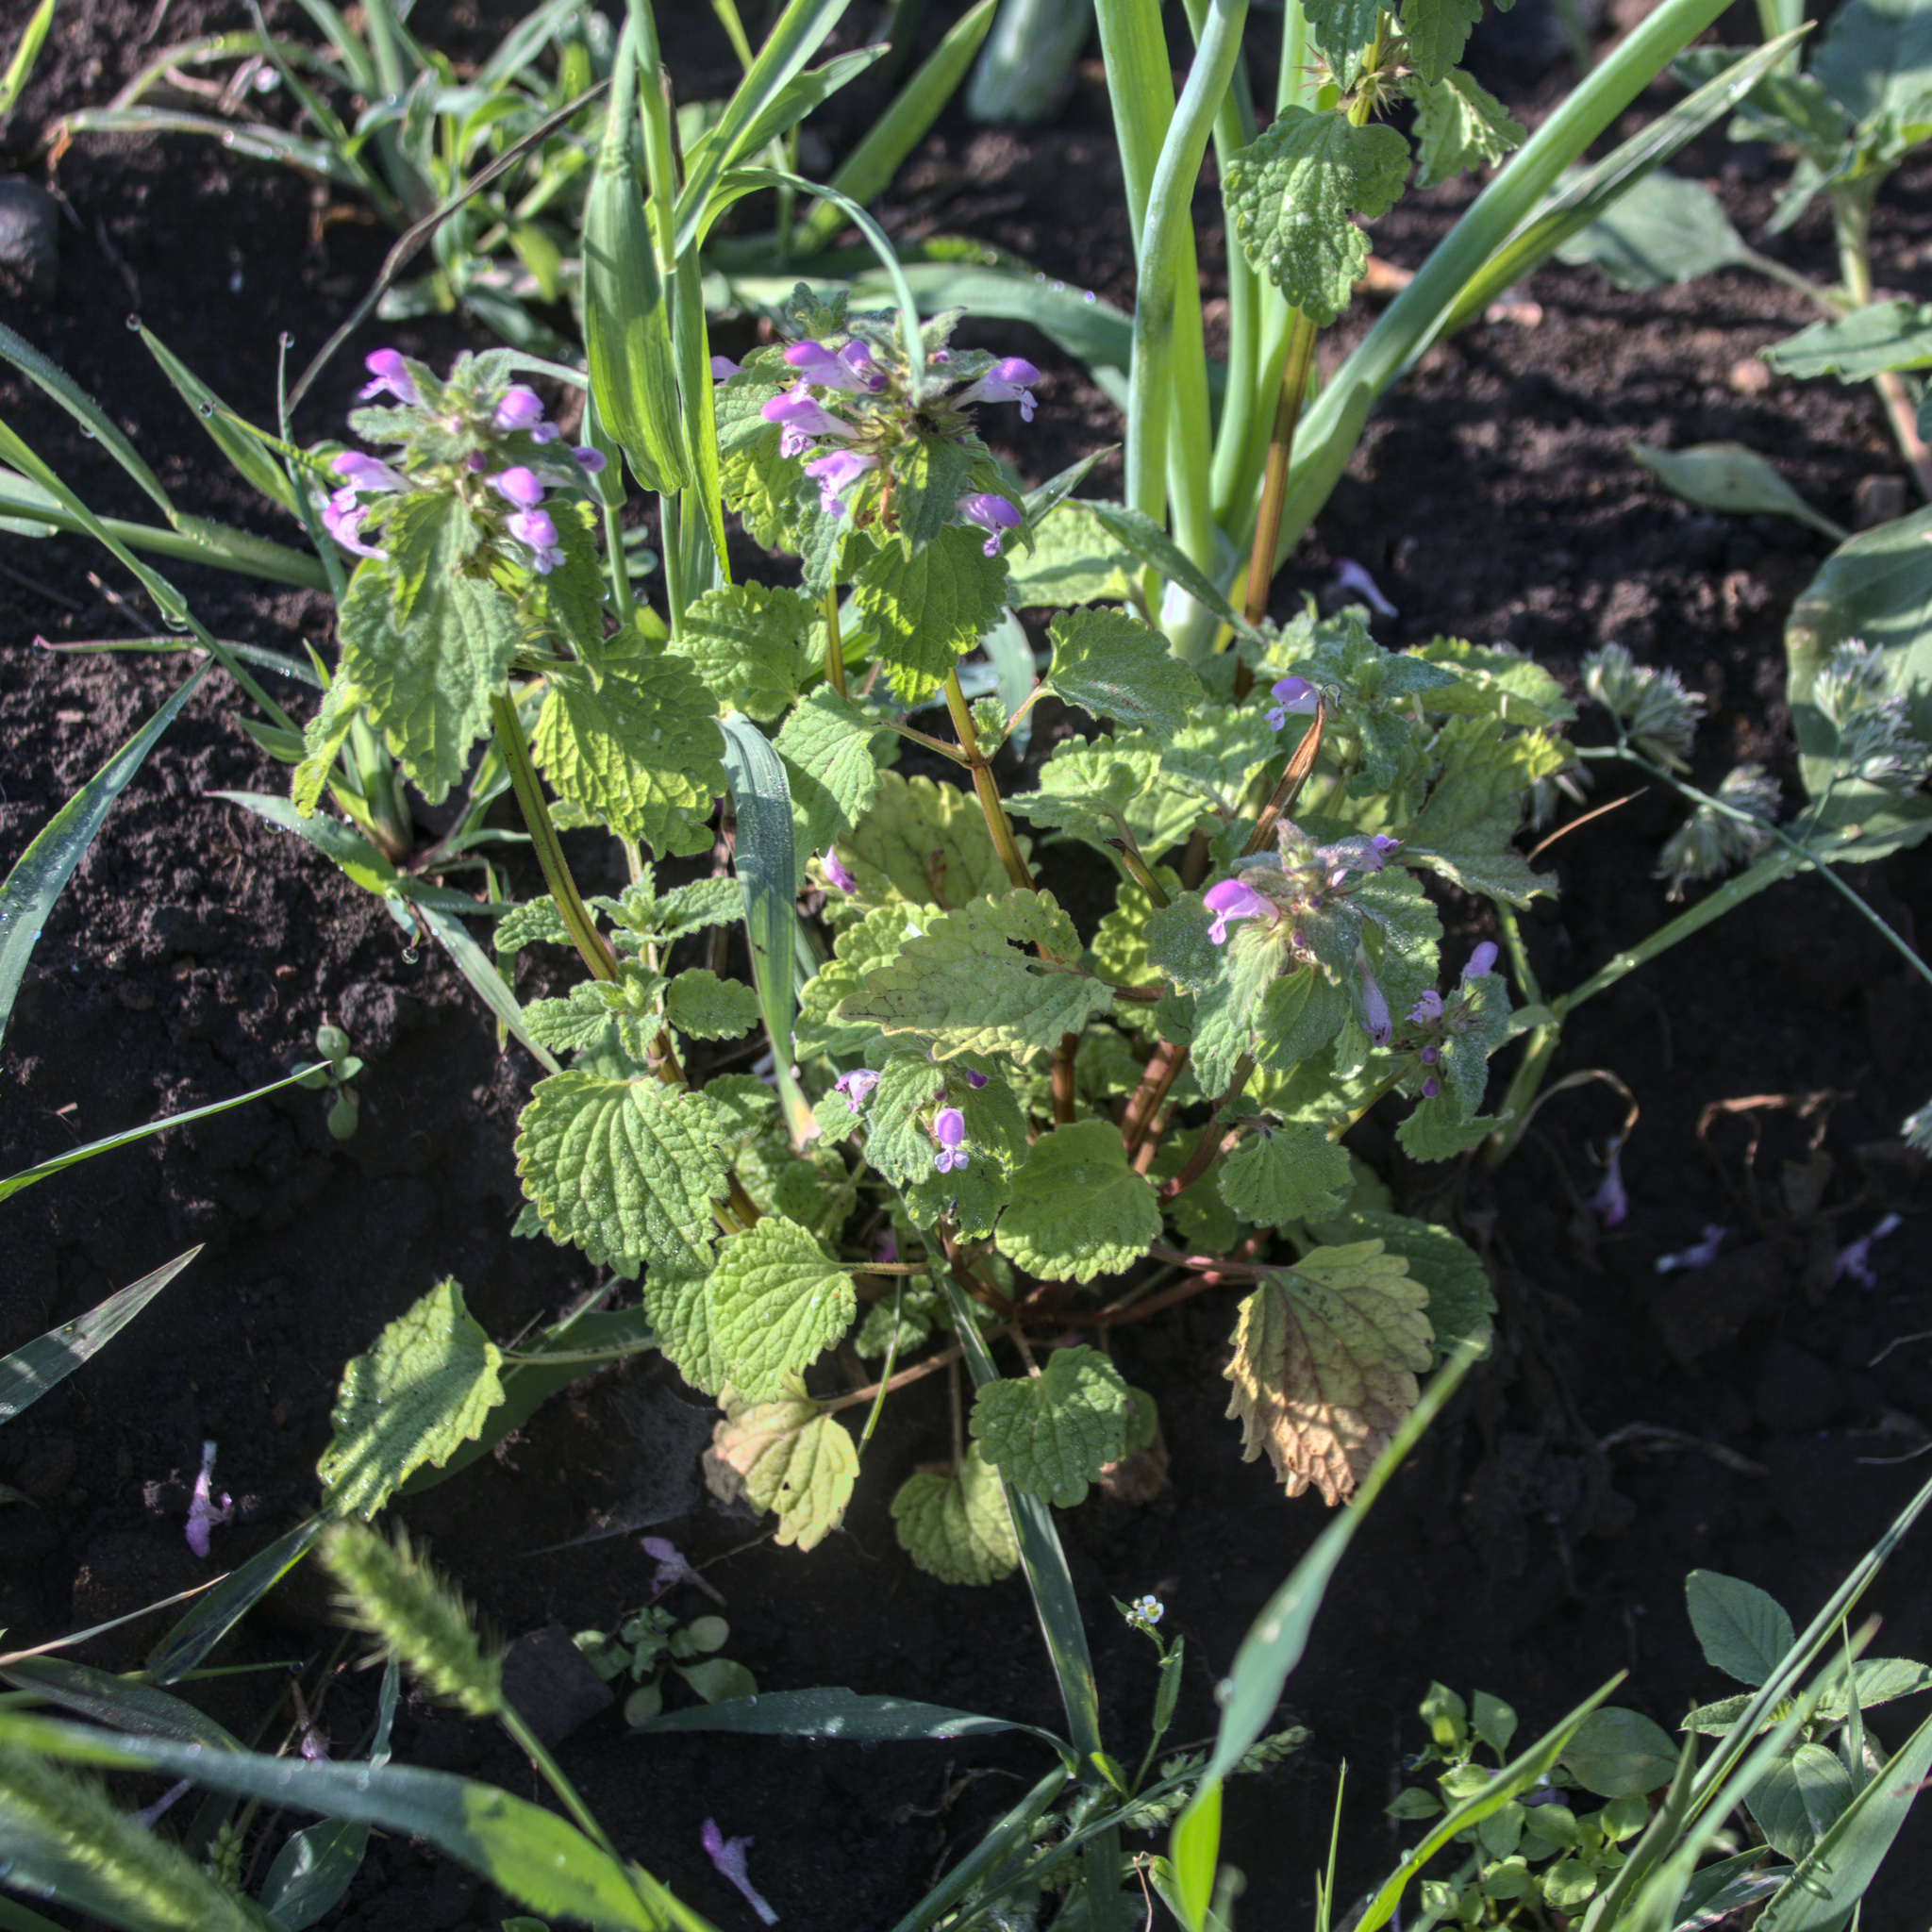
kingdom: Plantae
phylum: Tracheophyta
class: Magnoliopsida
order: Lamiales
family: Lamiaceae
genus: Lamium
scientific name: Lamium purpureum
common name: Red dead-nettle
